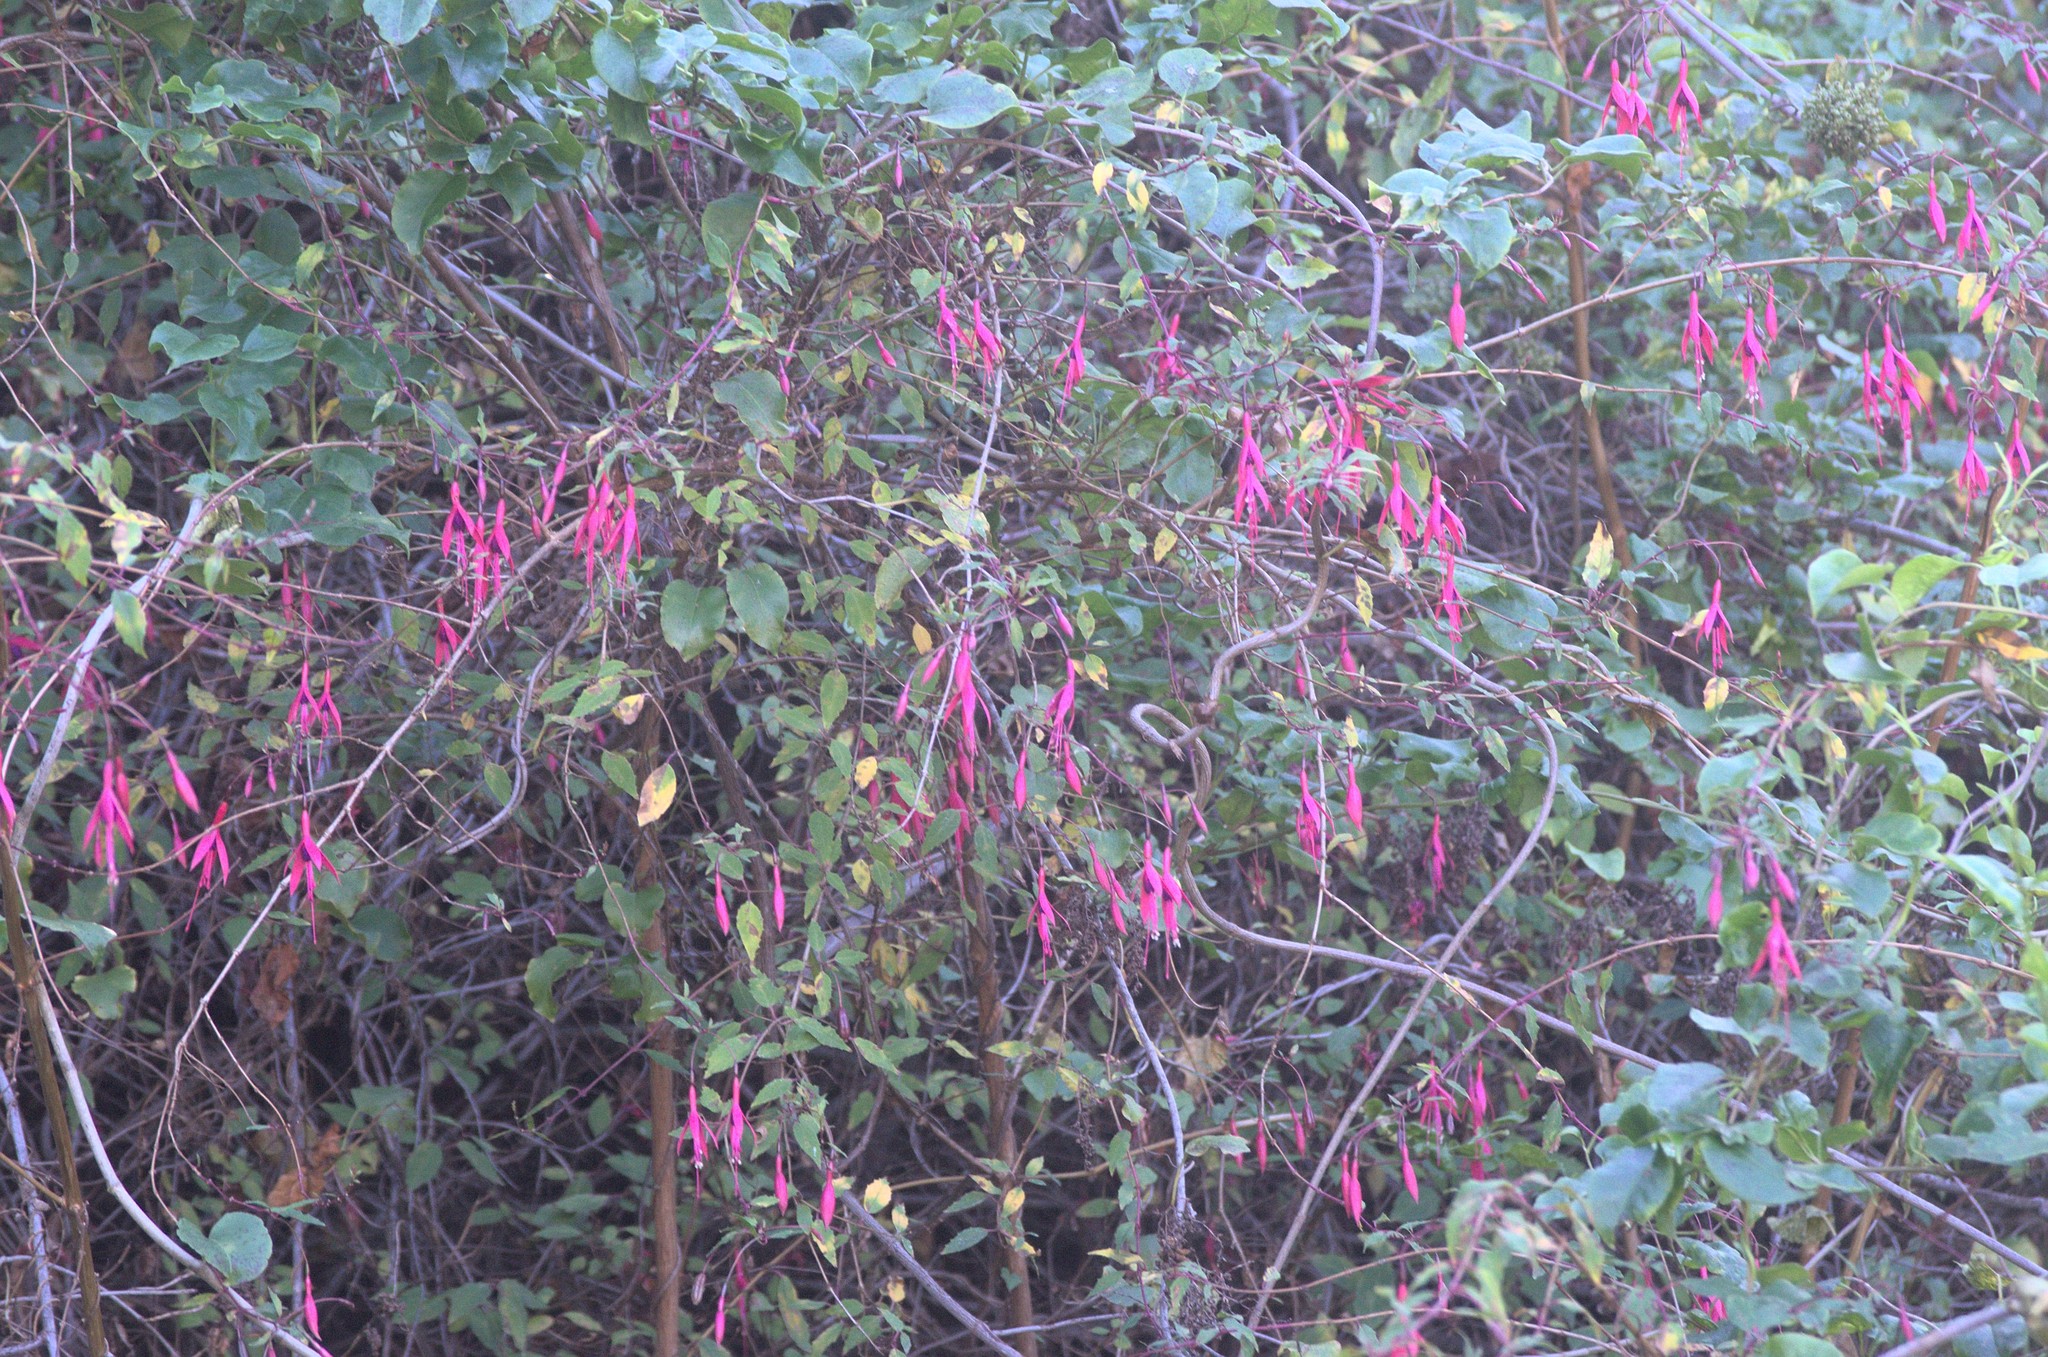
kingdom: Plantae
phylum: Tracheophyta
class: Magnoliopsida
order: Myrtales
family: Onagraceae
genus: Fuchsia
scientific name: Fuchsia magellanica
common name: Hardy fuchsia
